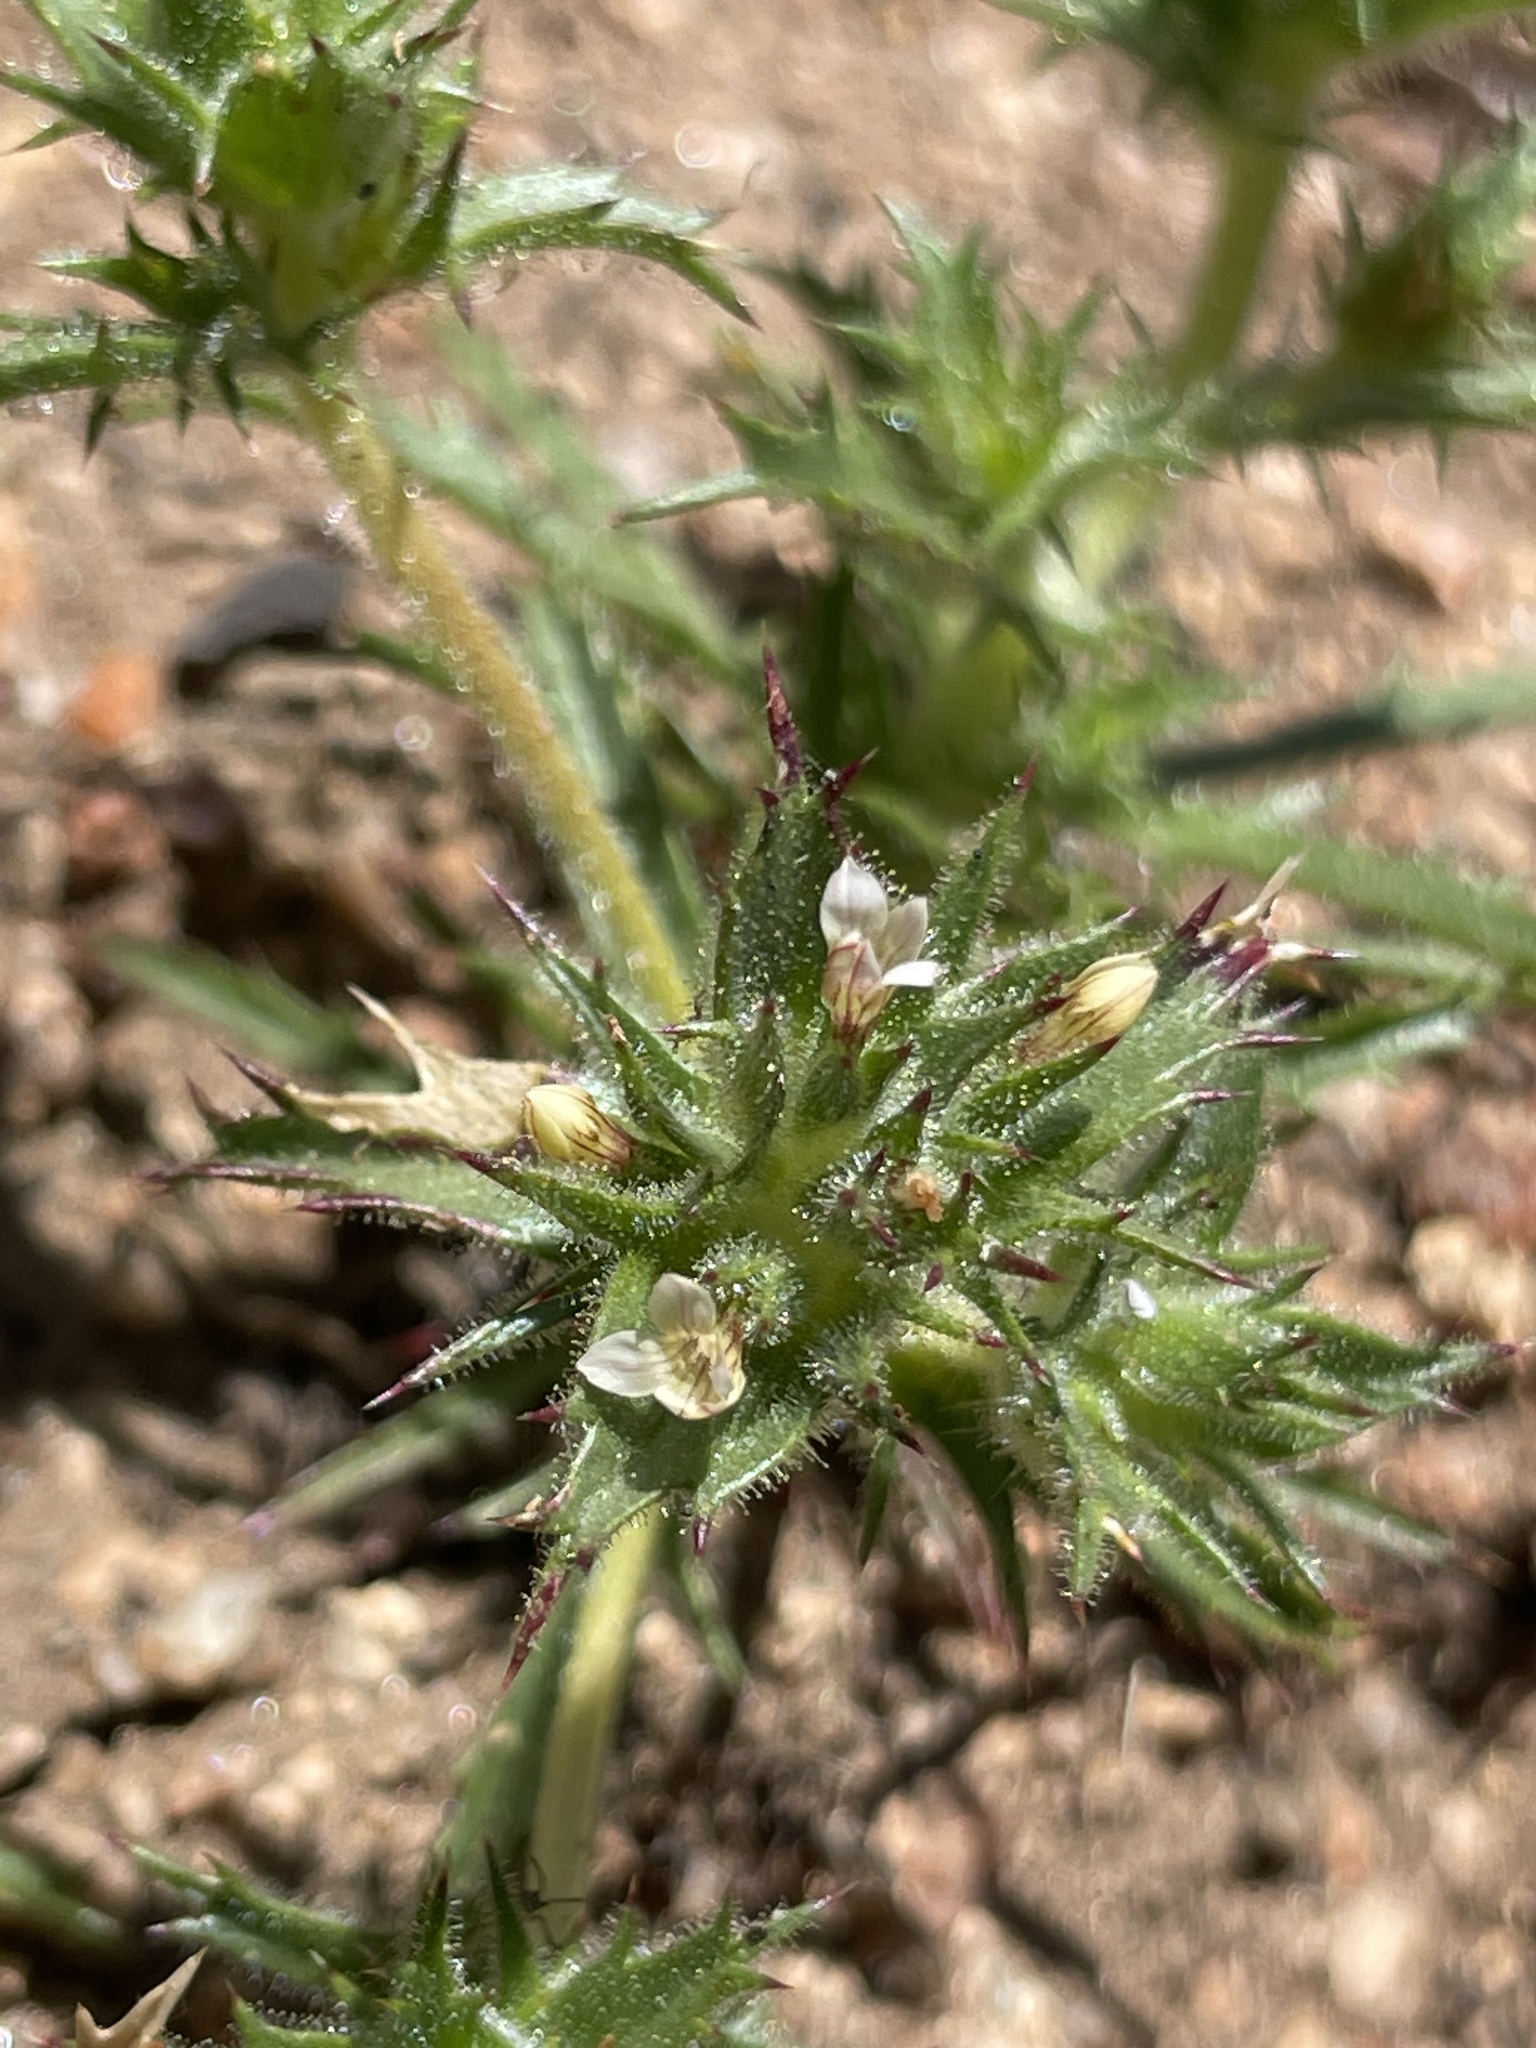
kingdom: Plantae
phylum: Tracheophyta
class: Magnoliopsida
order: Ericales
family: Polemoniaceae
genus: Navarretia
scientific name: Navarretia atractyloides
